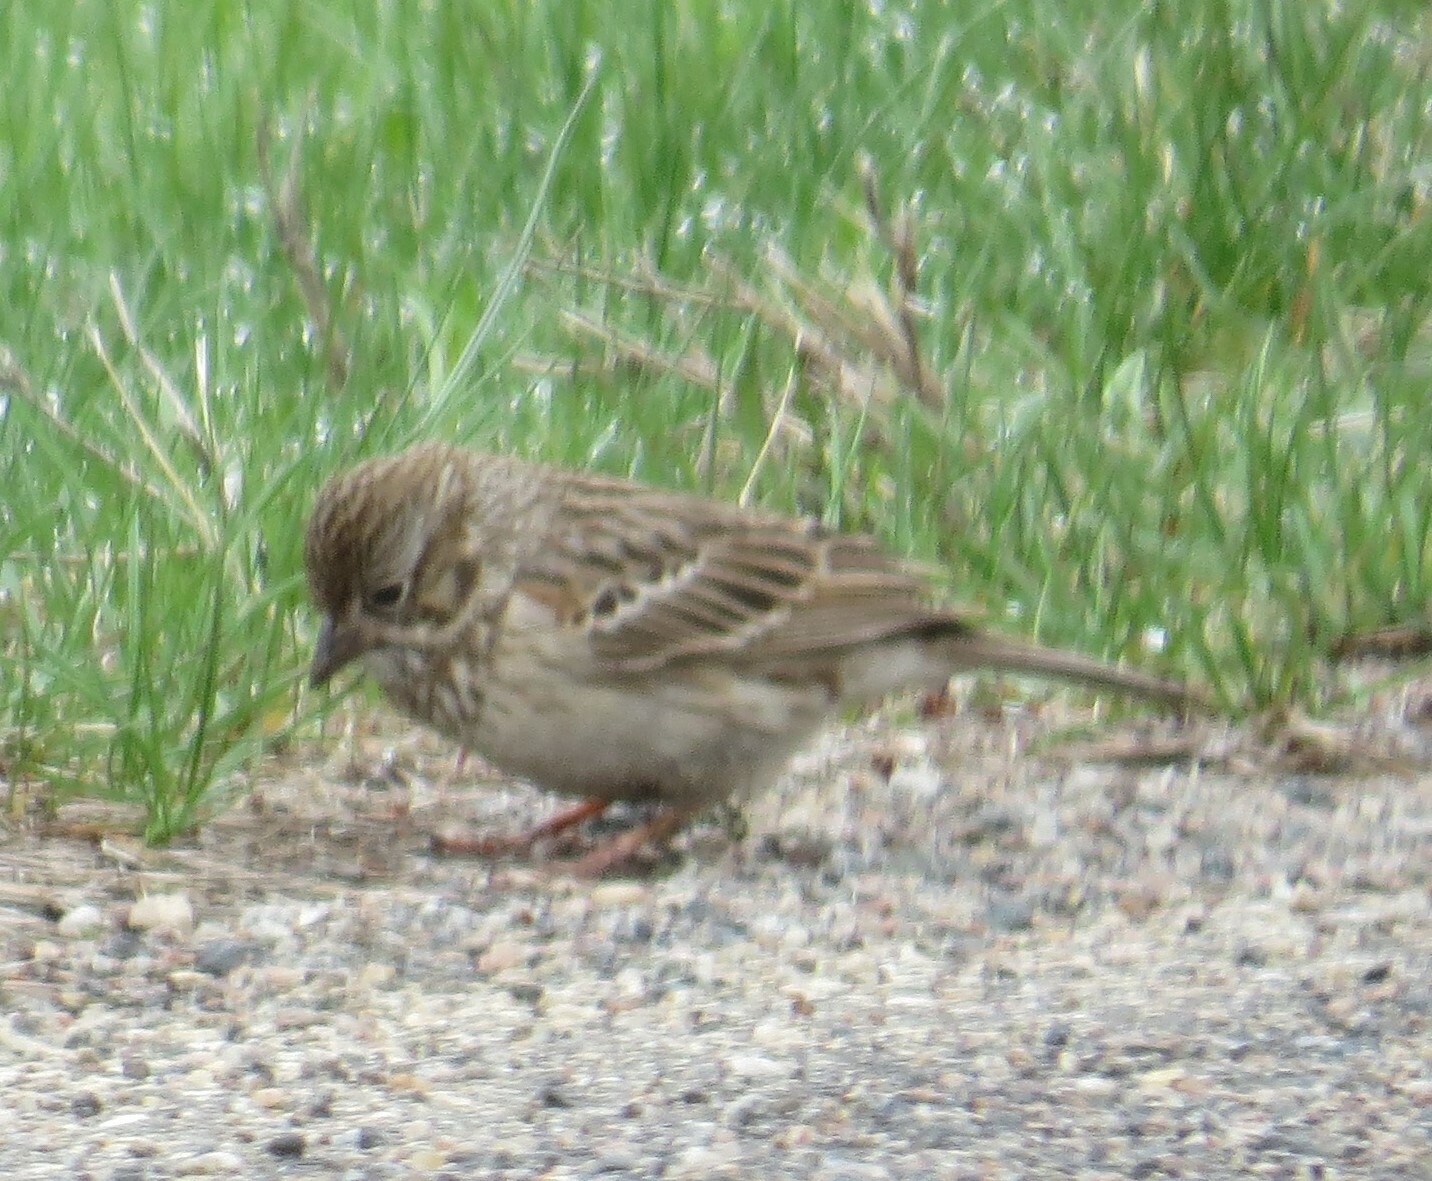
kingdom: Animalia
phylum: Chordata
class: Aves
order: Passeriformes
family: Passerellidae
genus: Pooecetes
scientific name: Pooecetes gramineus
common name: Vesper sparrow
